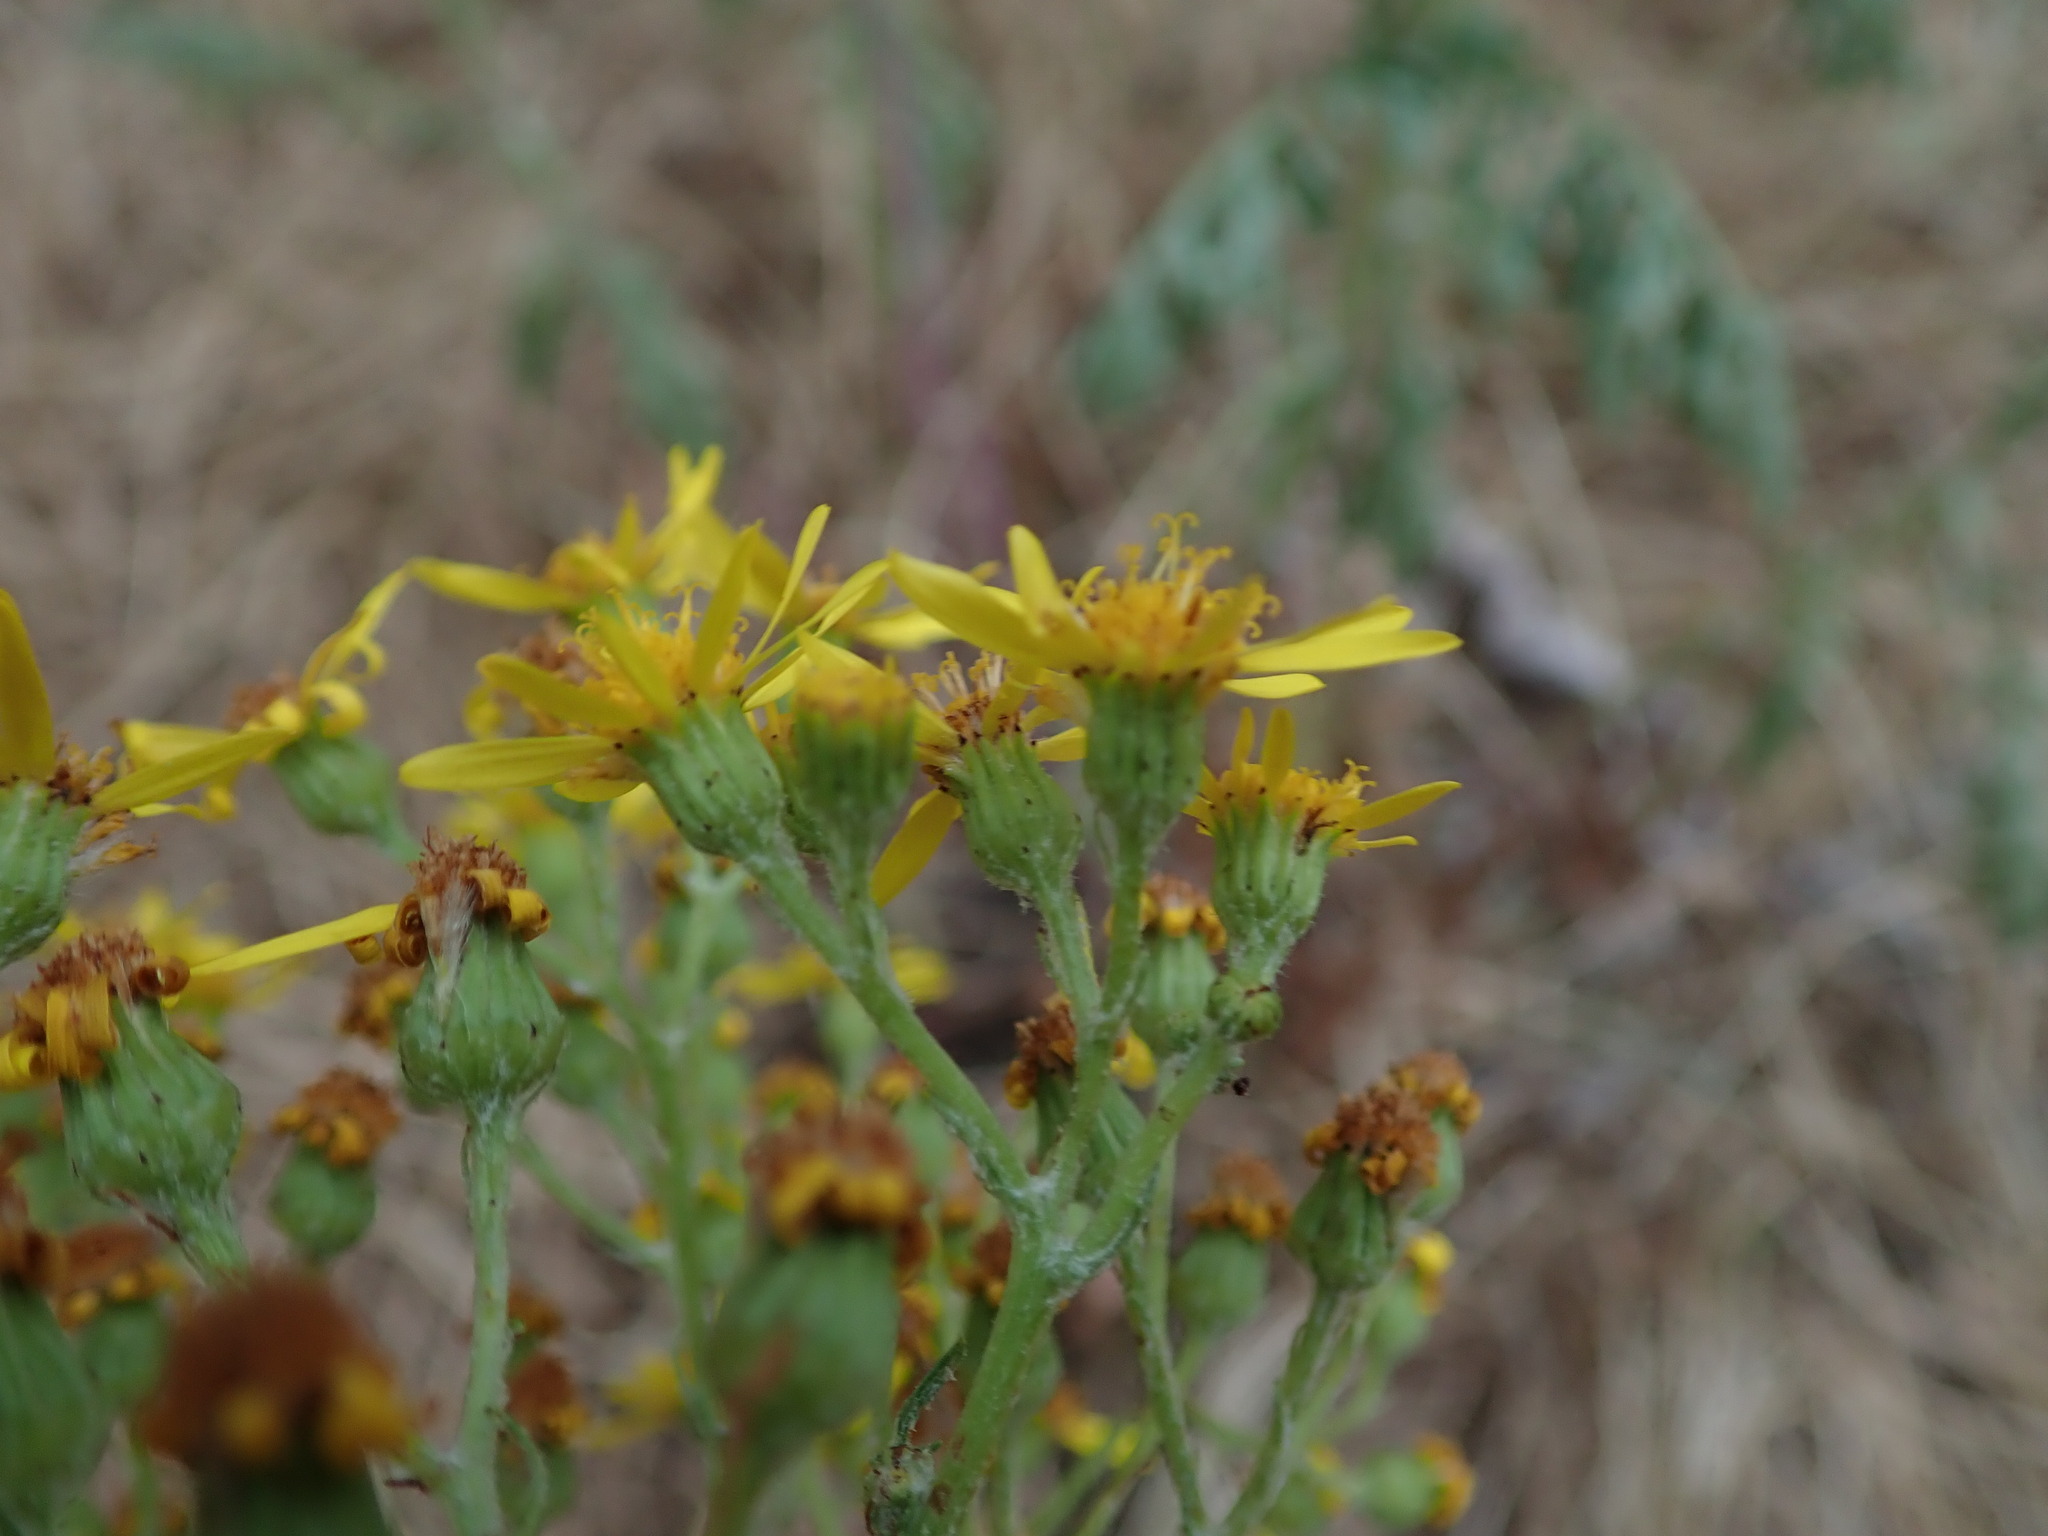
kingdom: Plantae
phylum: Tracheophyta
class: Magnoliopsida
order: Asterales
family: Asteraceae
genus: Jacobaea
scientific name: Jacobaea vulgaris
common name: Stinking willie
